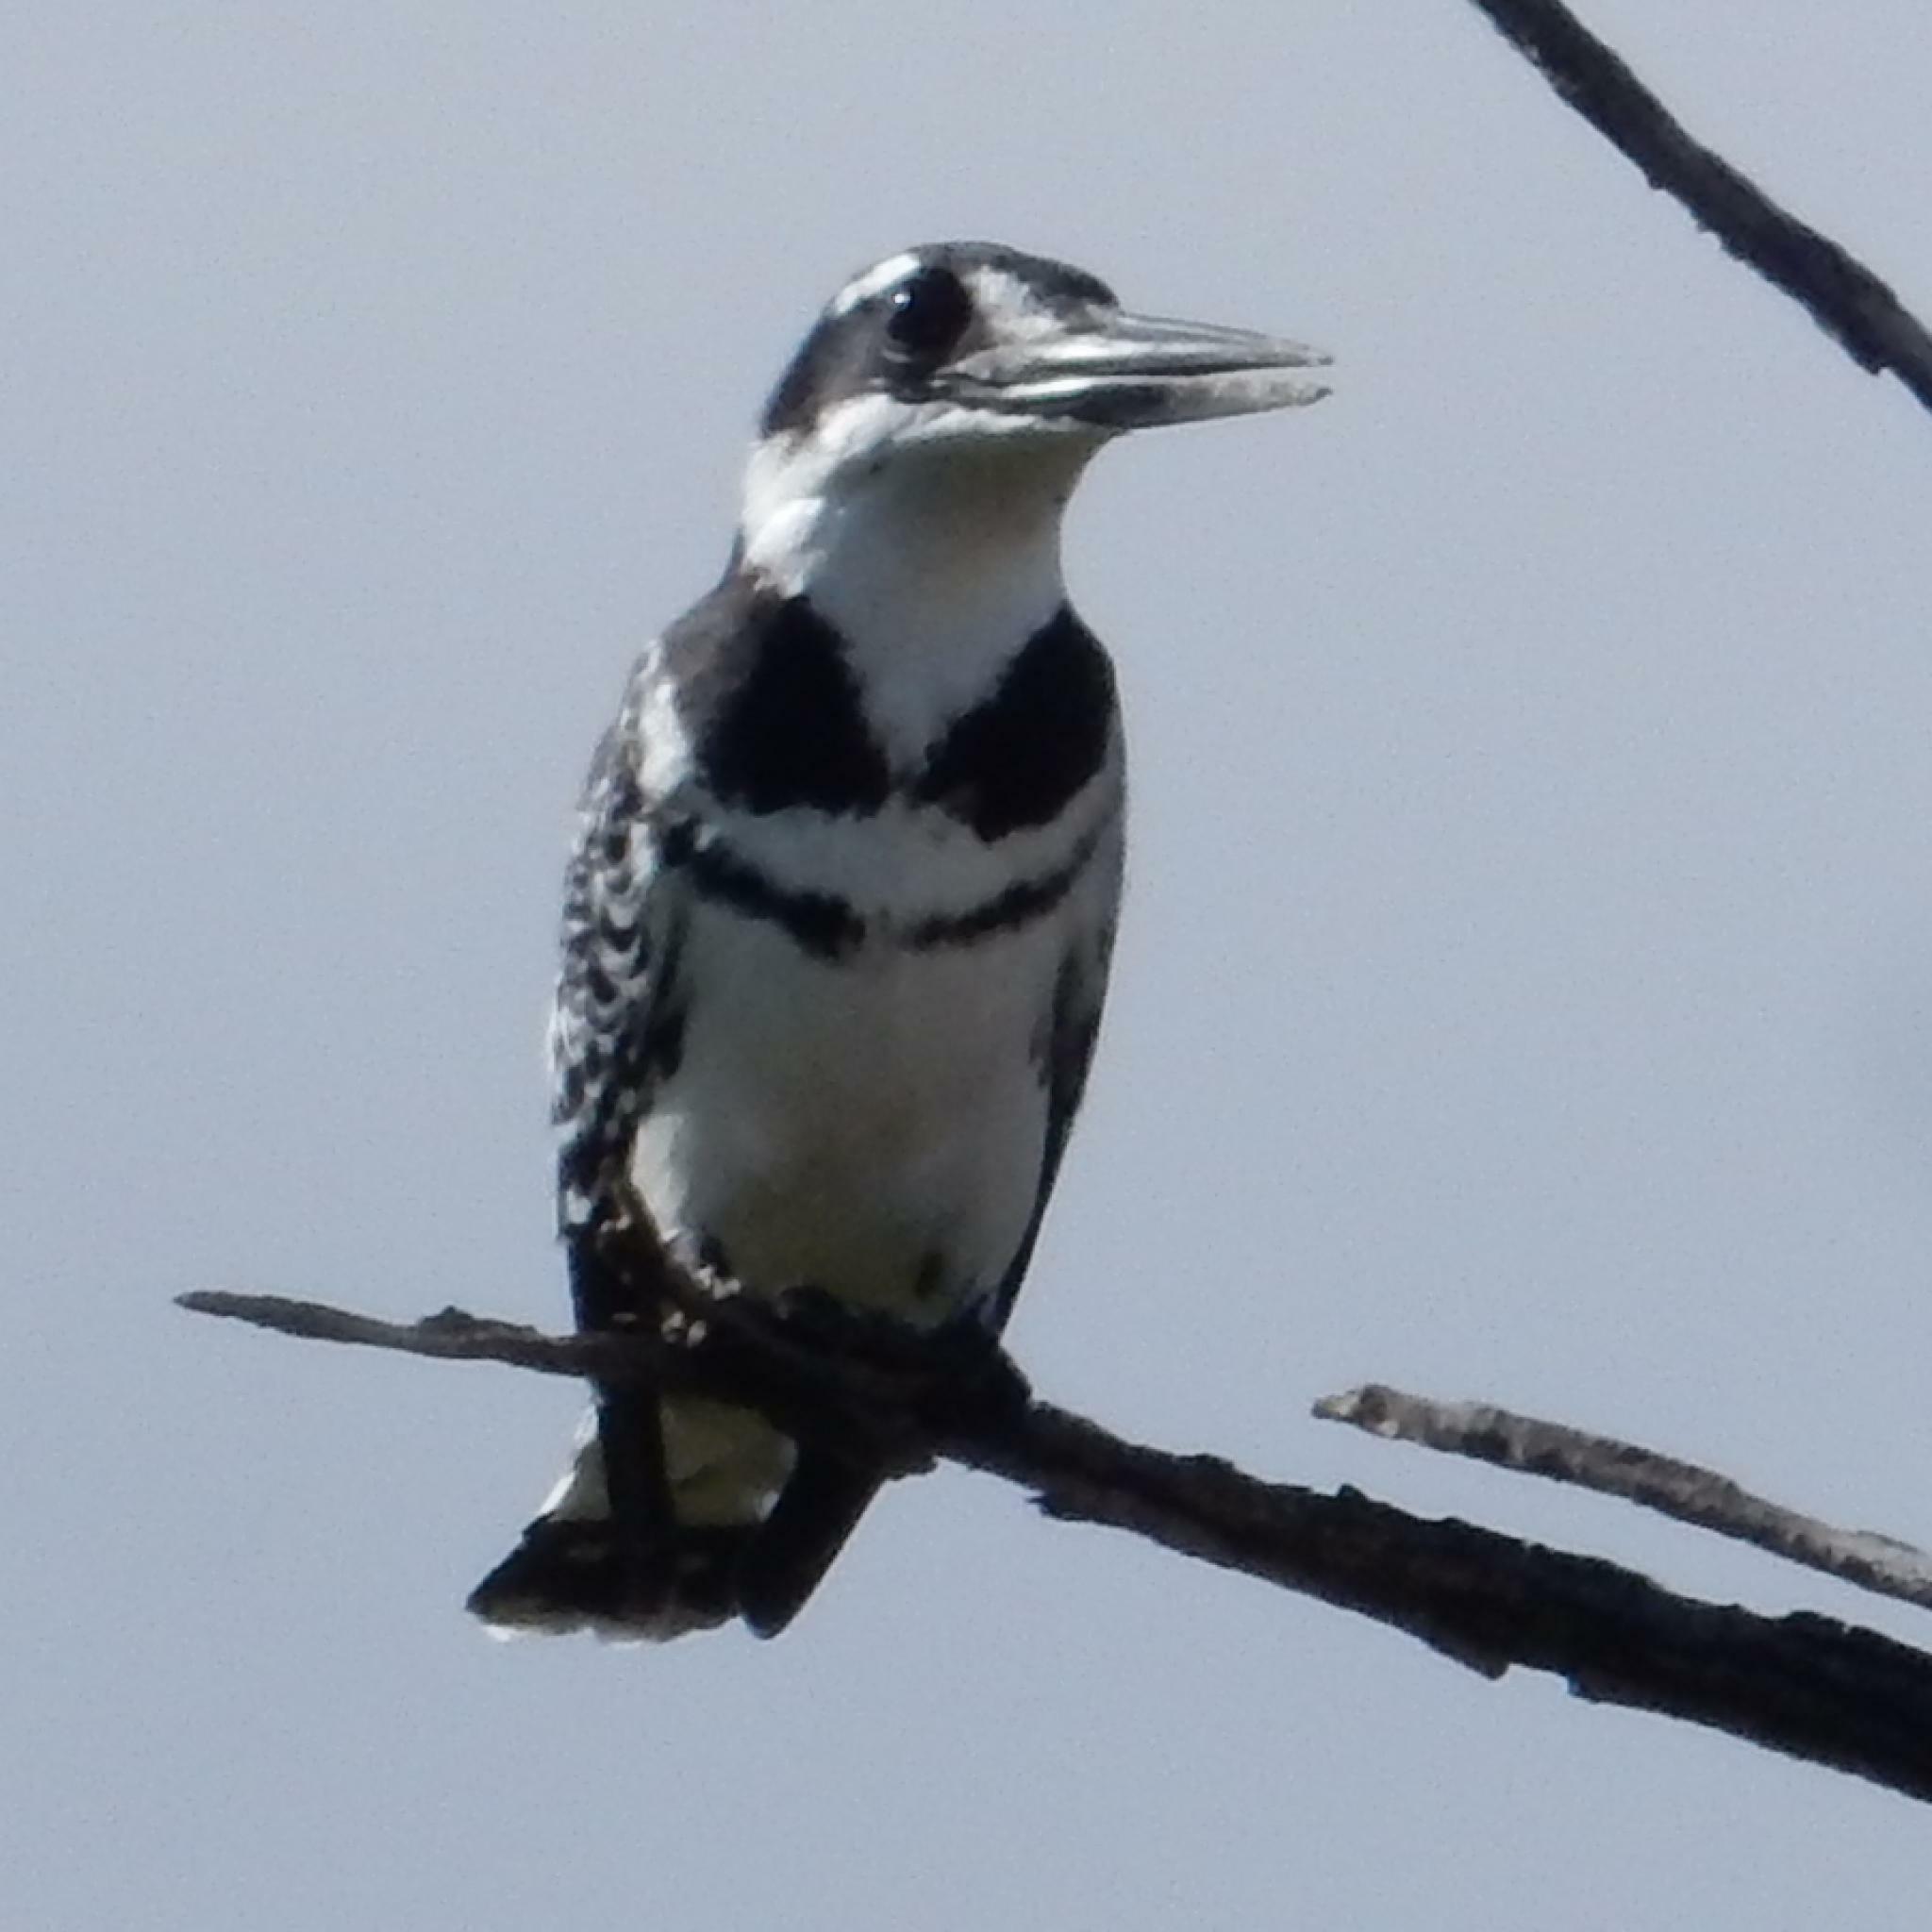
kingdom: Animalia
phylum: Chordata
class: Aves
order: Coraciiformes
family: Alcedinidae
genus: Ceryle
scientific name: Ceryle rudis
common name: Pied kingfisher
